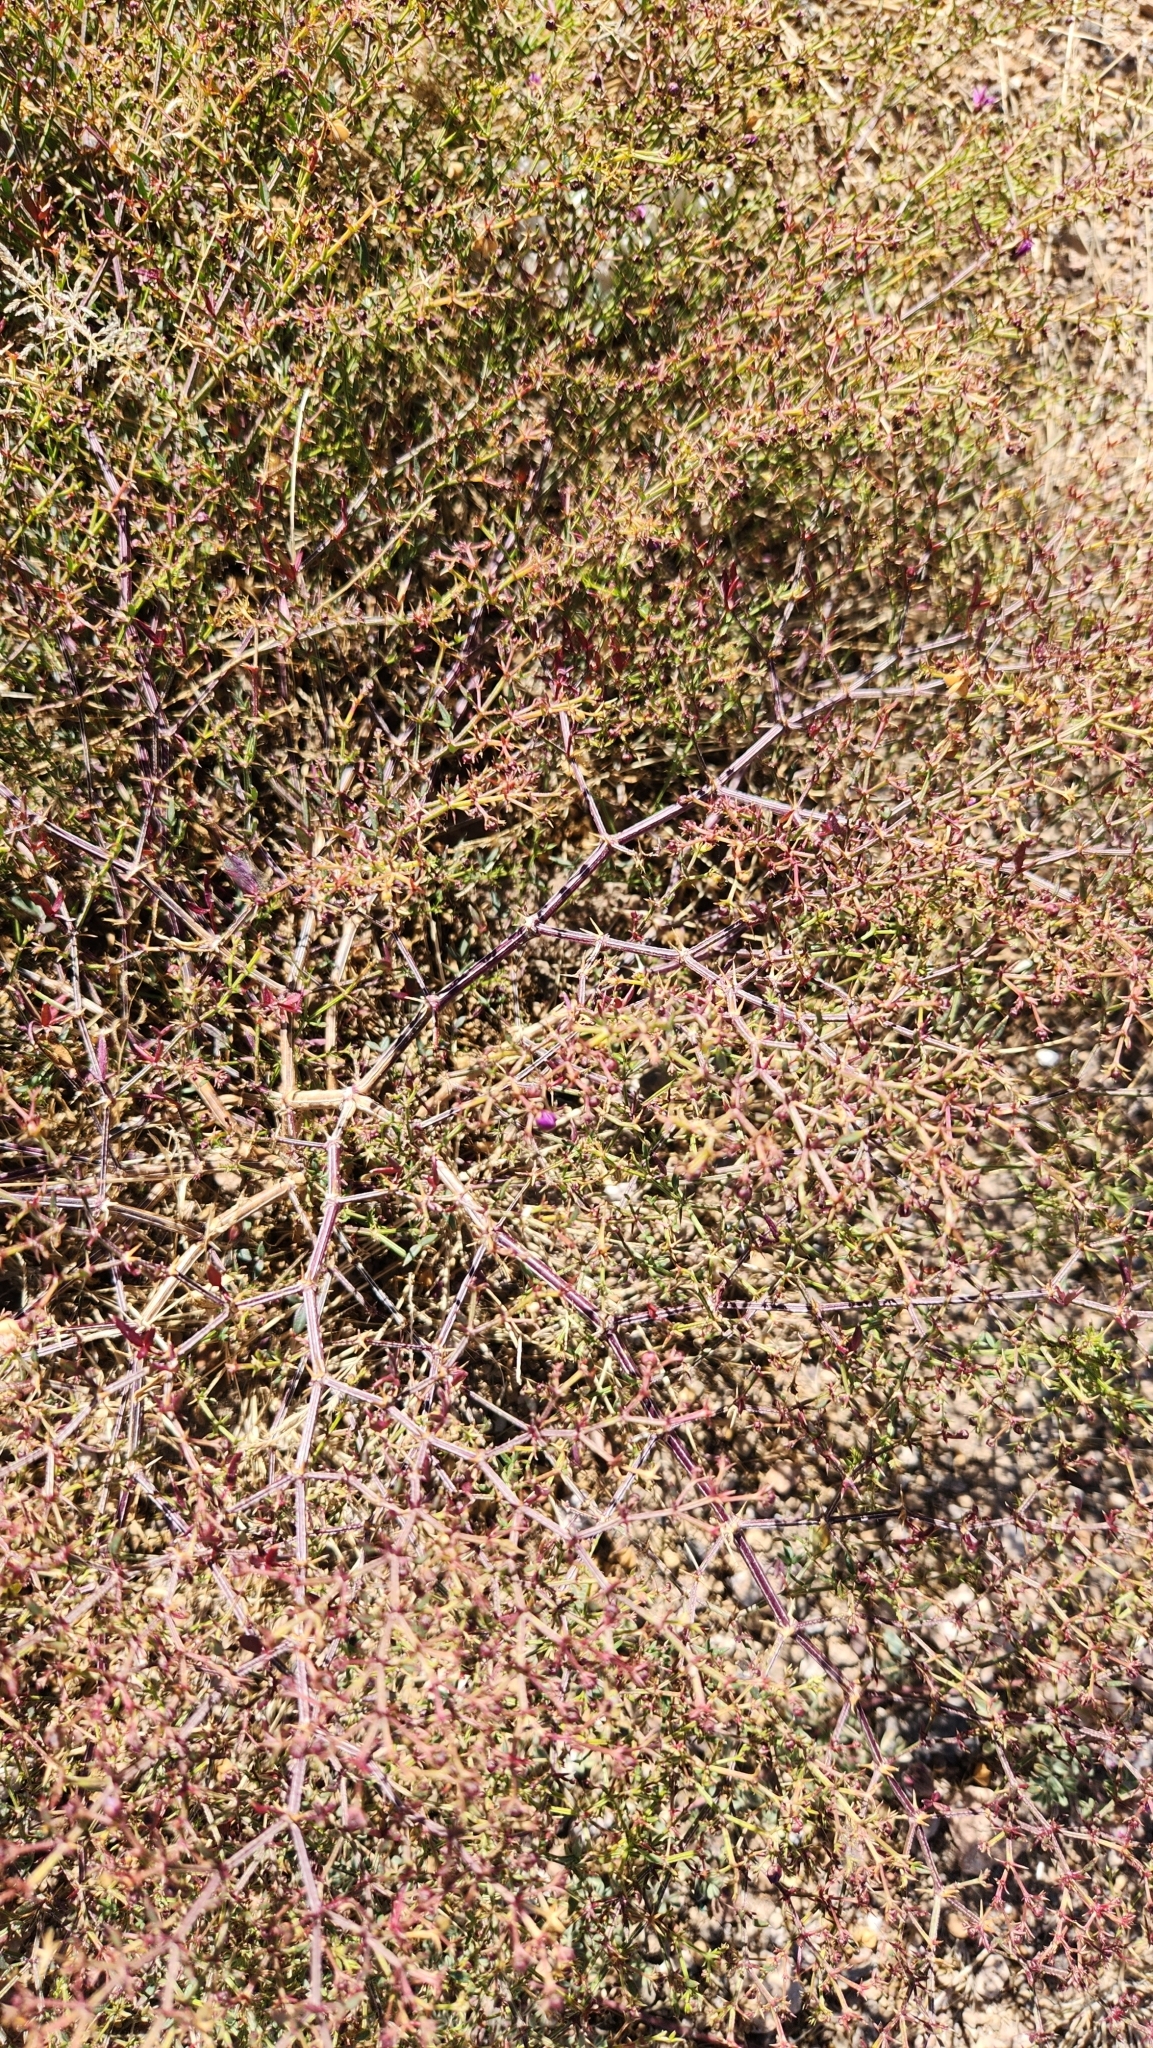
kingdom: Plantae
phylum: Tracheophyta
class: Magnoliopsida
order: Zygophyllales
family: Zygophyllaceae
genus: Fagonia
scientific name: Fagonia laevis
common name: California fagonbush
